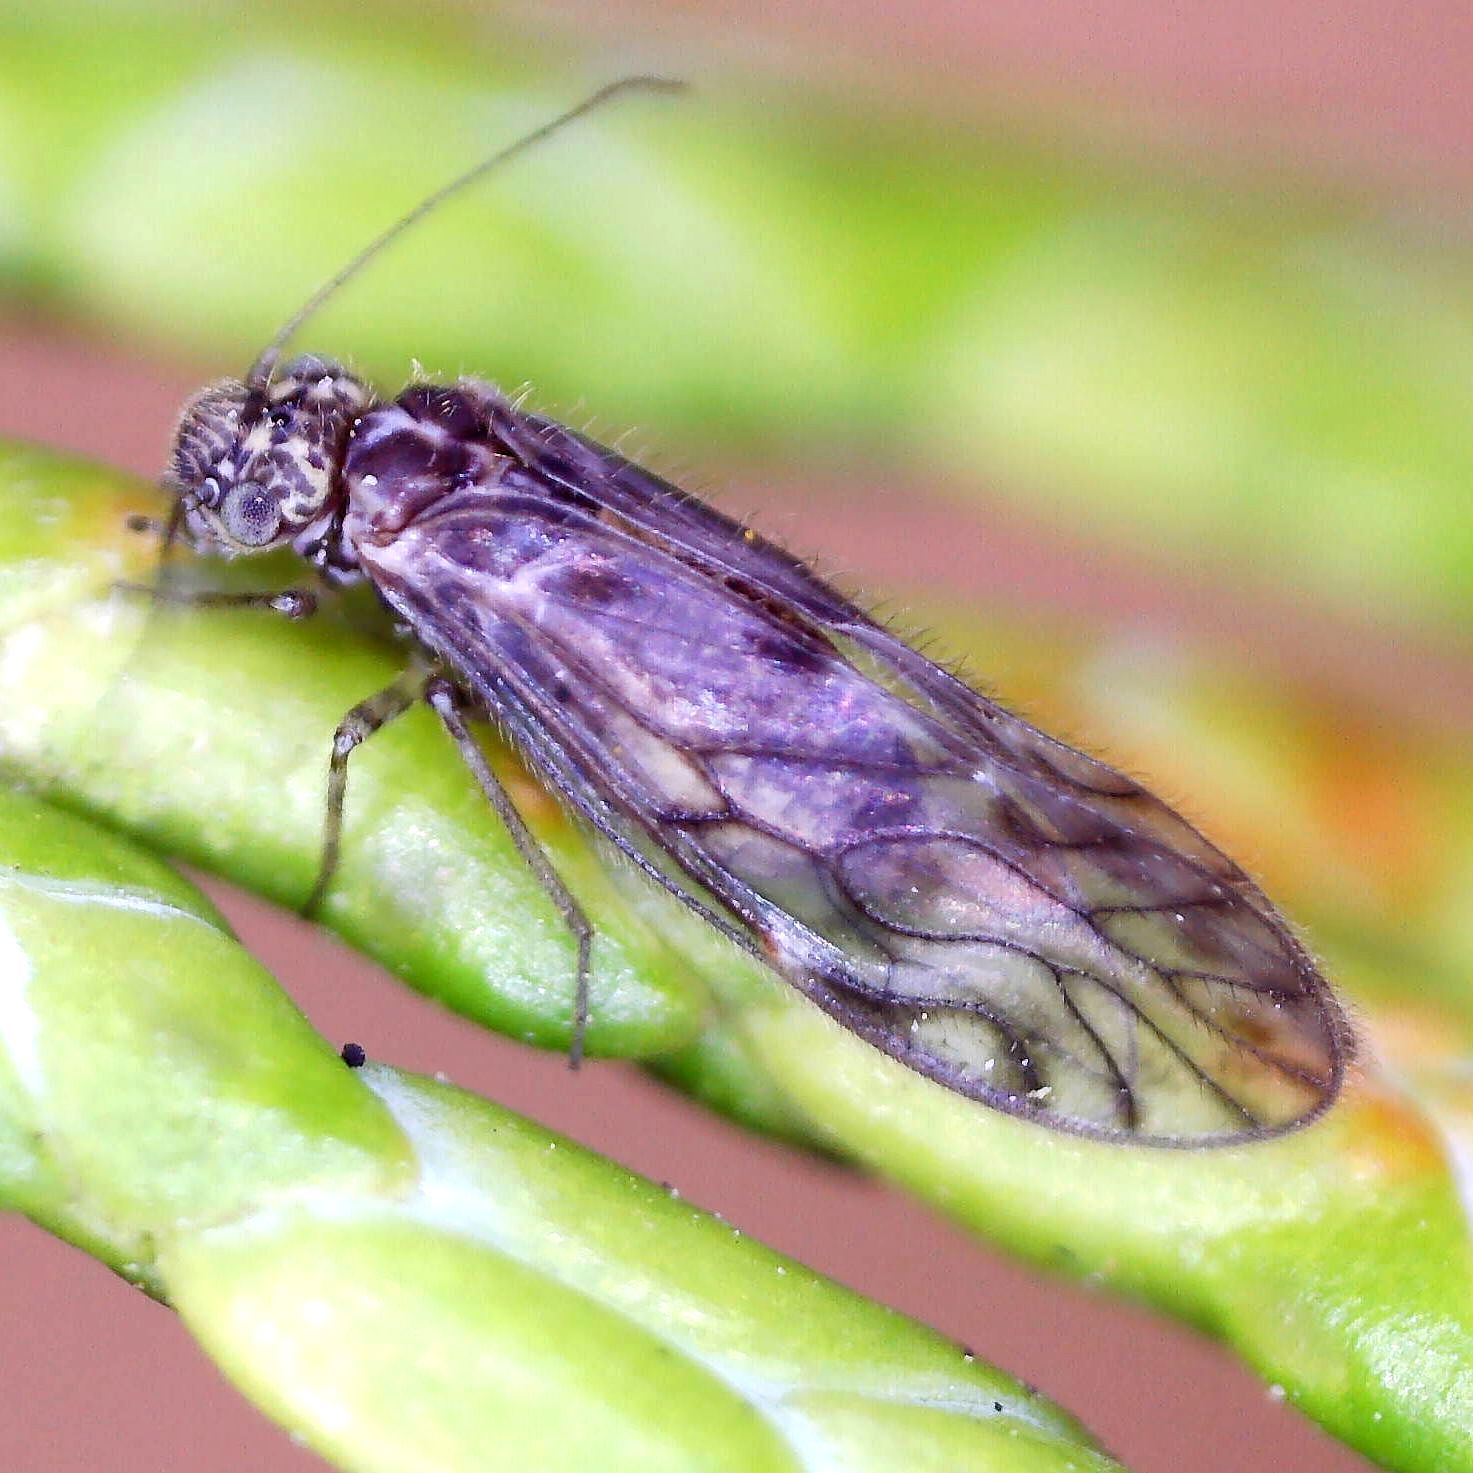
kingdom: Animalia
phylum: Arthropoda
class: Insecta
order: Psocodea
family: Philotarsidae
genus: Philotarsus
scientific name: Philotarsus parviceps
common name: Bark louse
